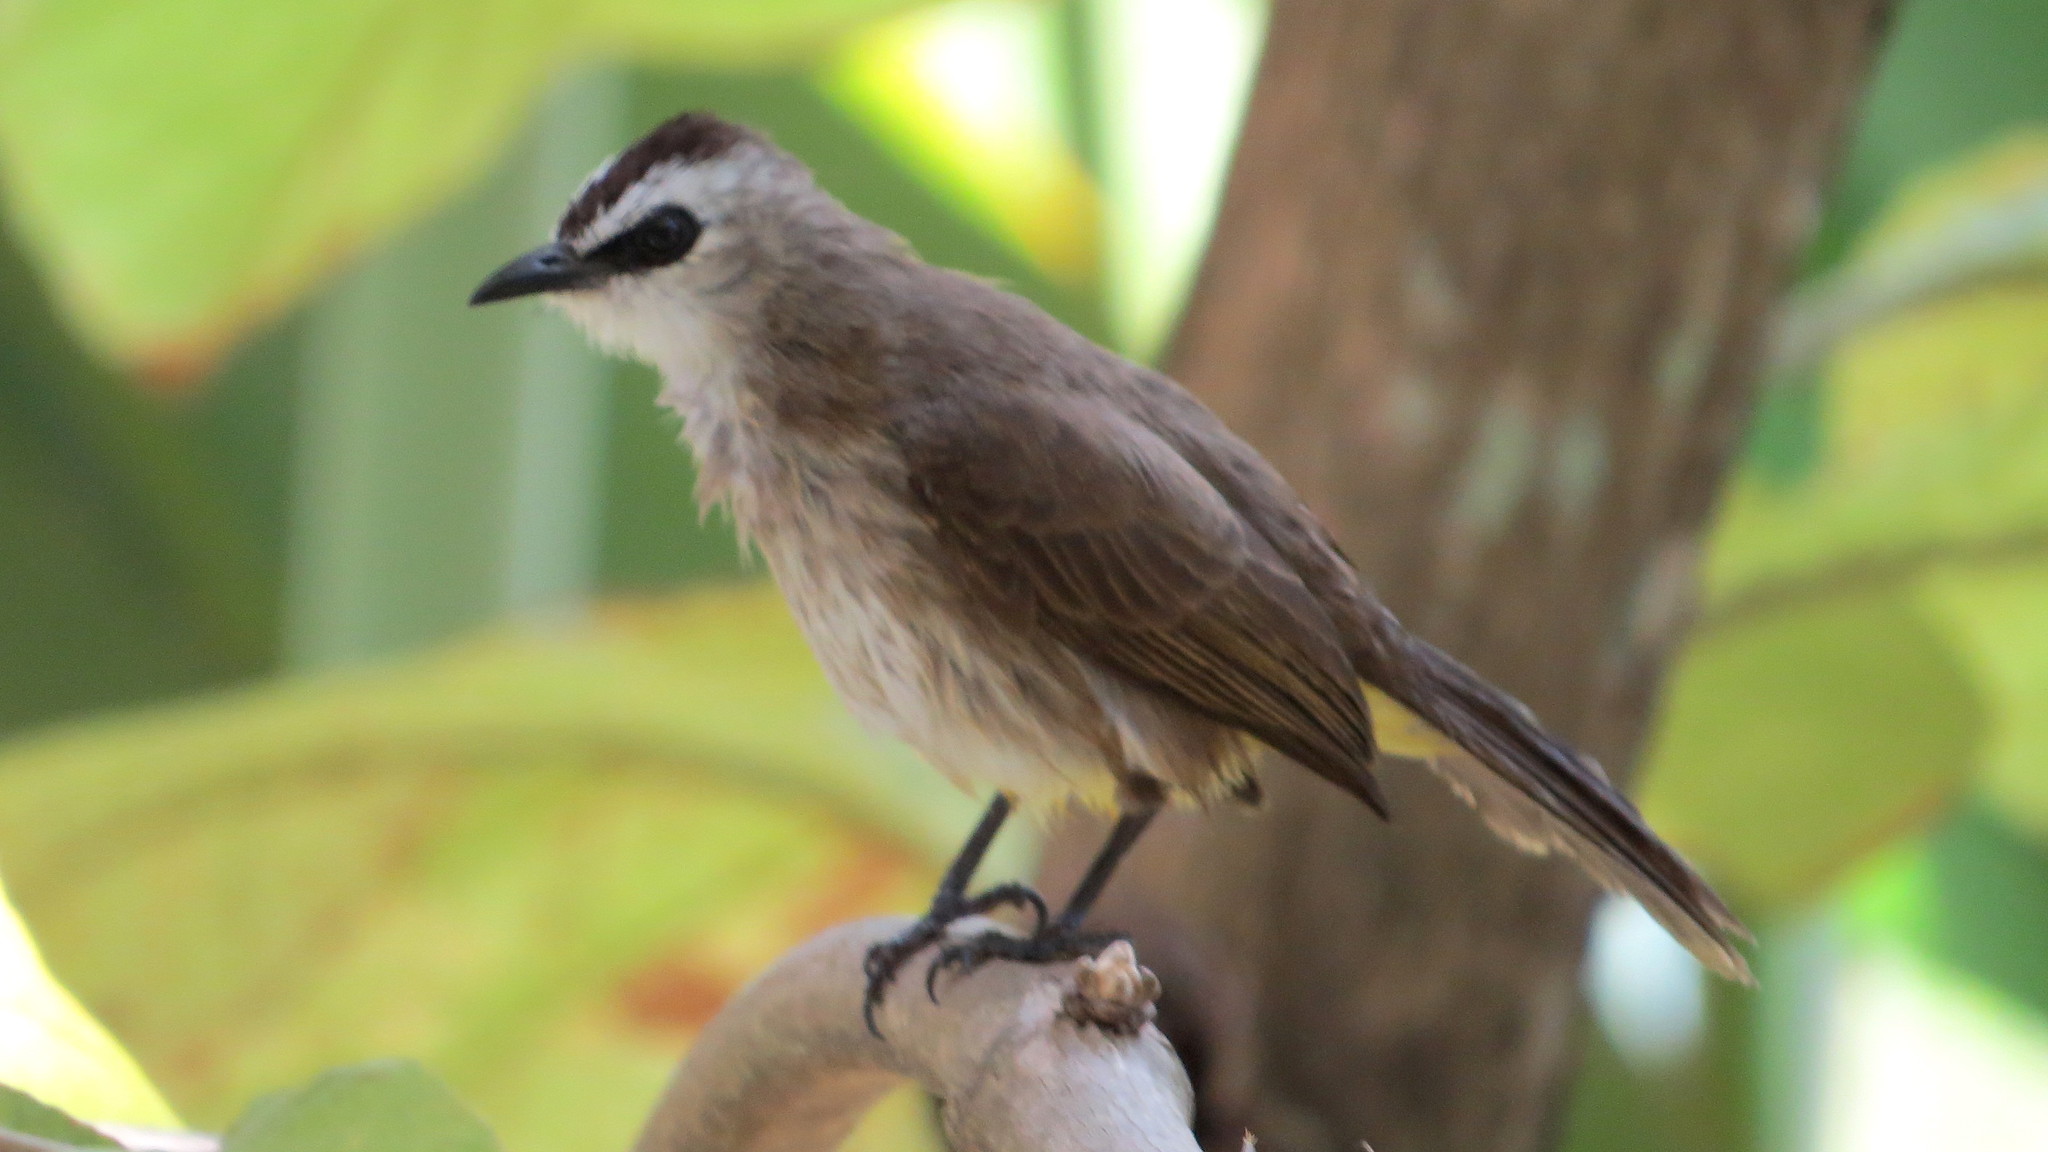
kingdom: Animalia
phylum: Chordata
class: Aves
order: Passeriformes
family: Pycnonotidae
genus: Pycnonotus
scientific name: Pycnonotus goiavier
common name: Yellow-vented bulbul
